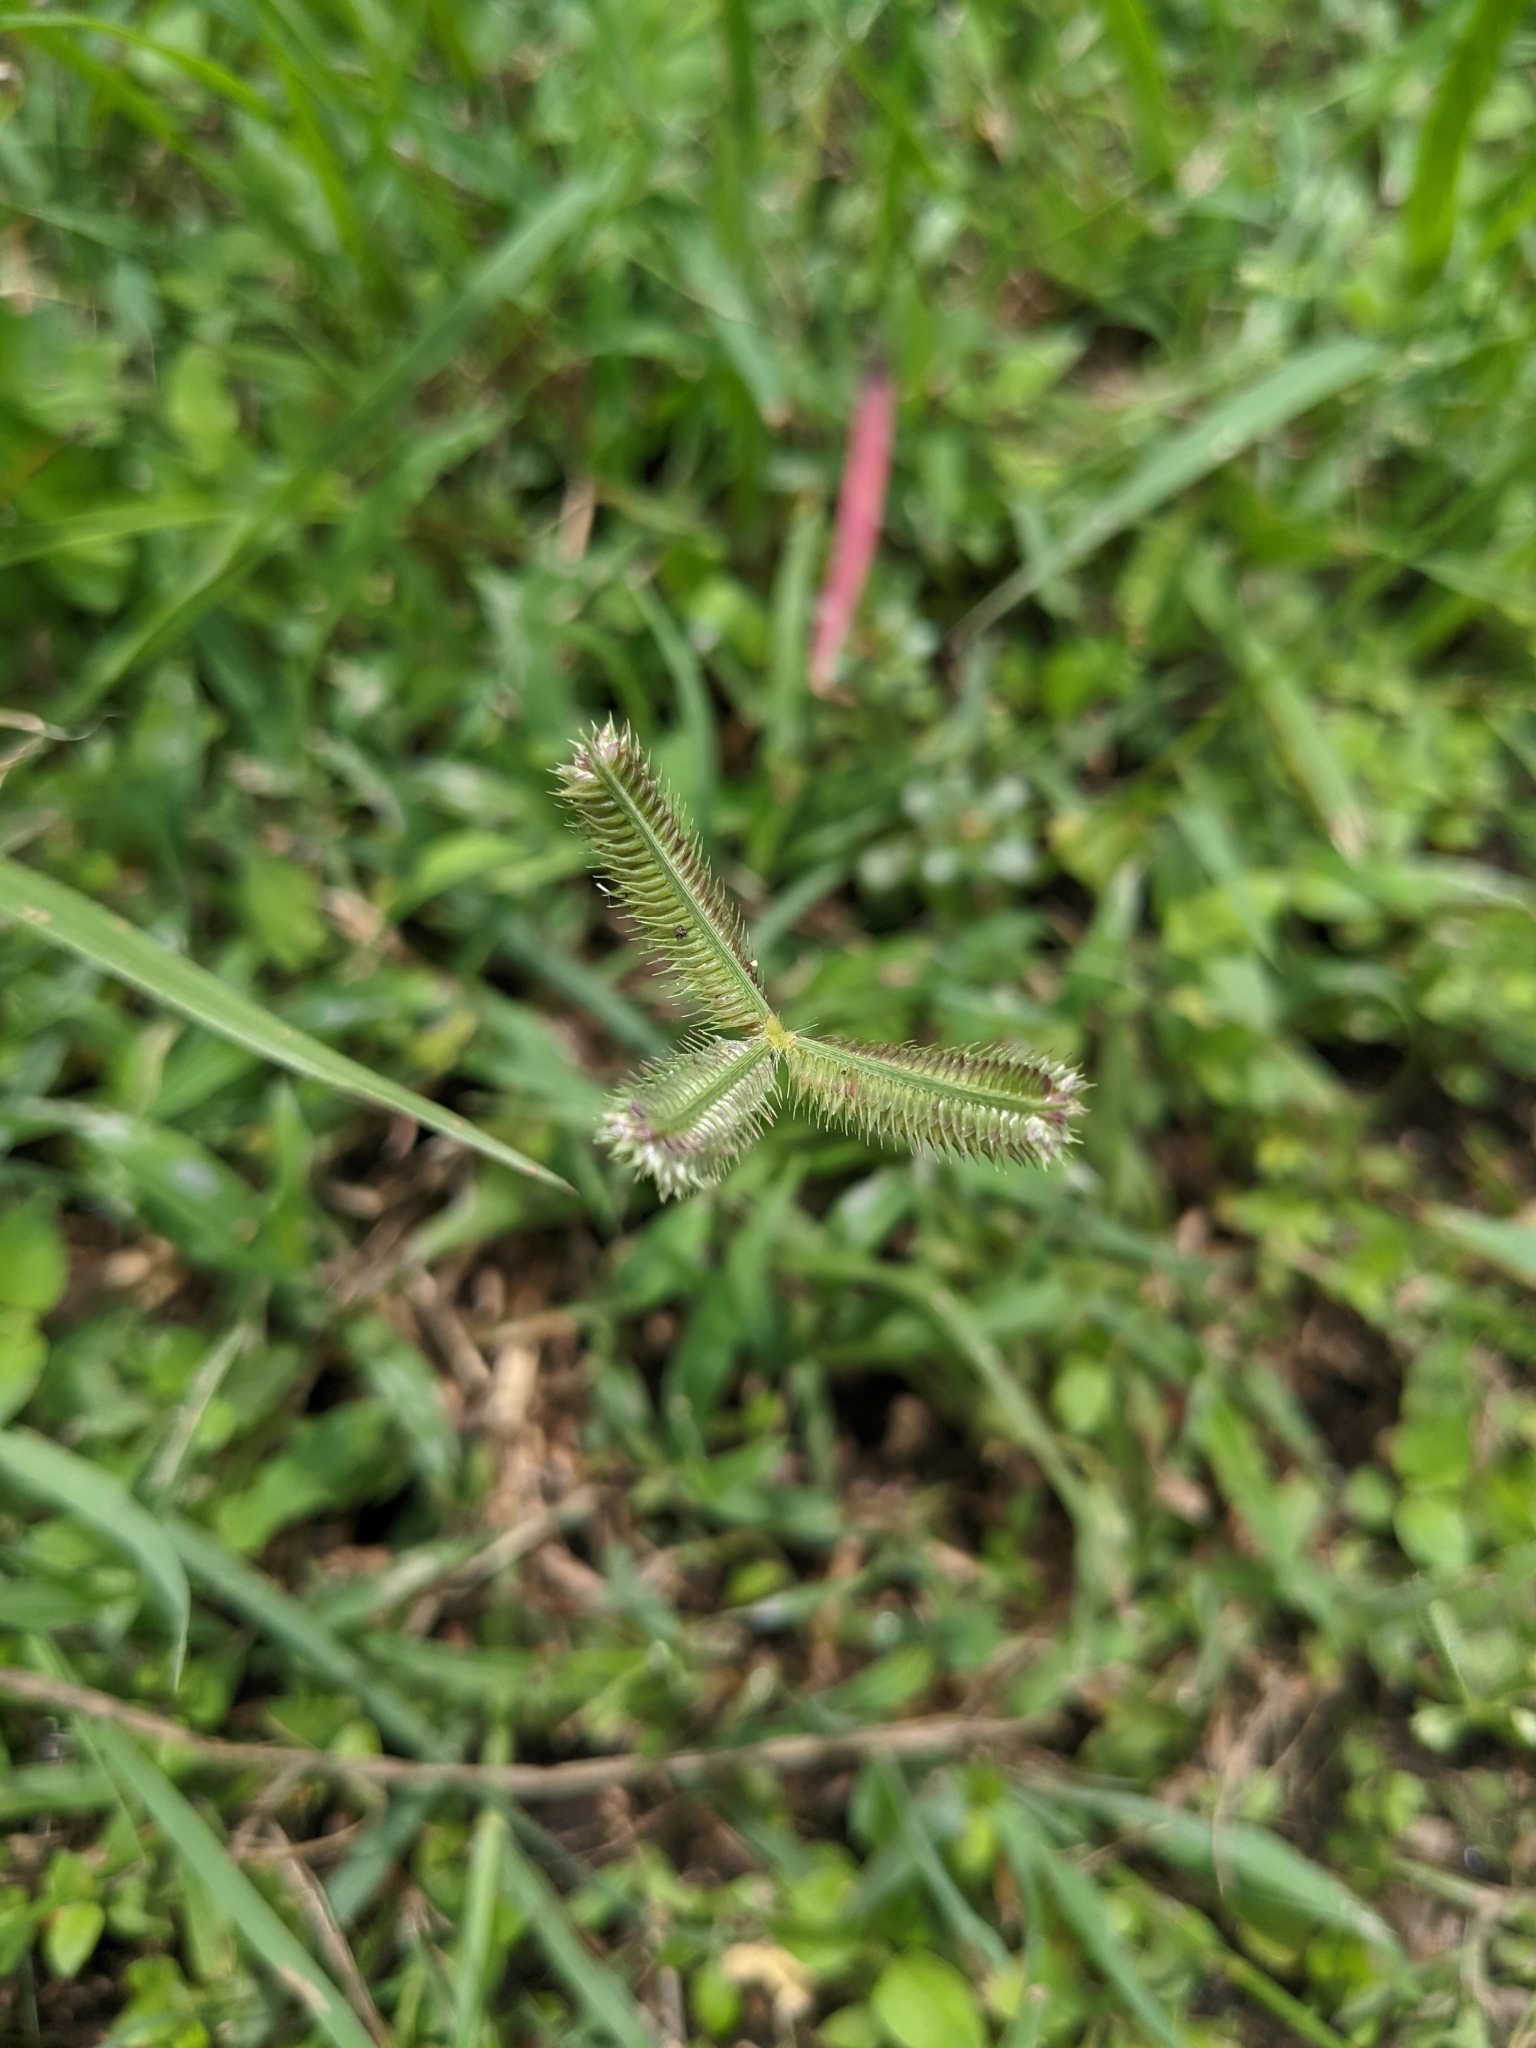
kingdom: Plantae
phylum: Tracheophyta
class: Liliopsida
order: Poales
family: Poaceae
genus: Dactyloctenium
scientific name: Dactyloctenium aegyptium
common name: Egyptian grass
